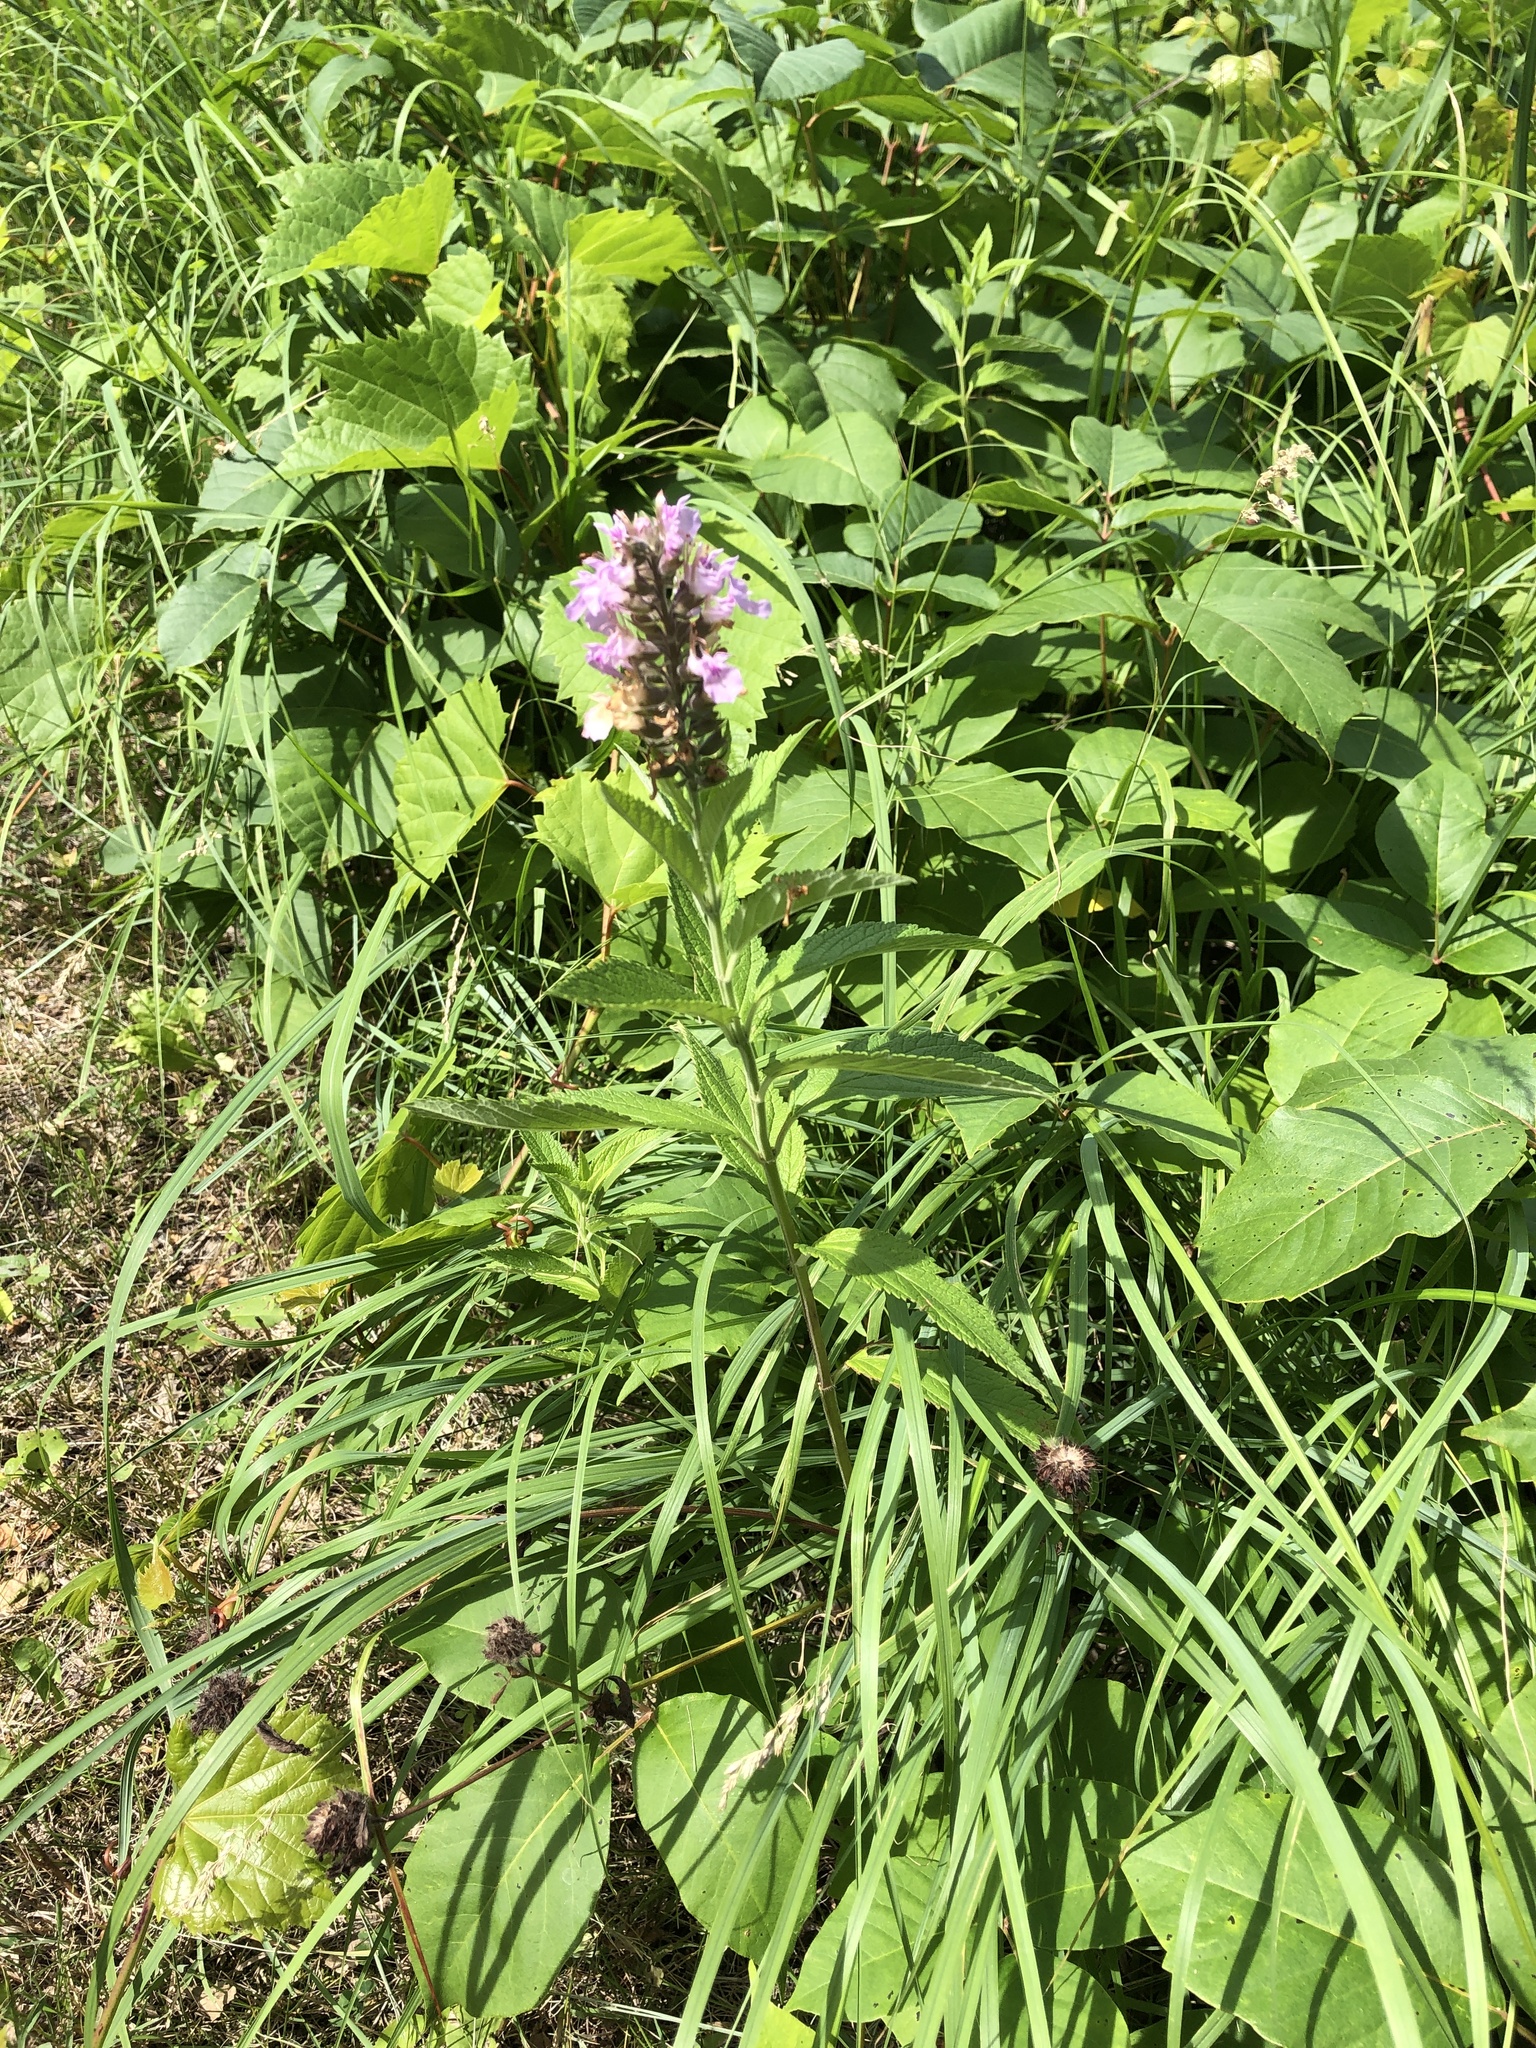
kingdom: Plantae
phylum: Tracheophyta
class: Magnoliopsida
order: Lamiales
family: Lamiaceae
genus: Teucrium
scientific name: Teucrium canadense
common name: American germander
